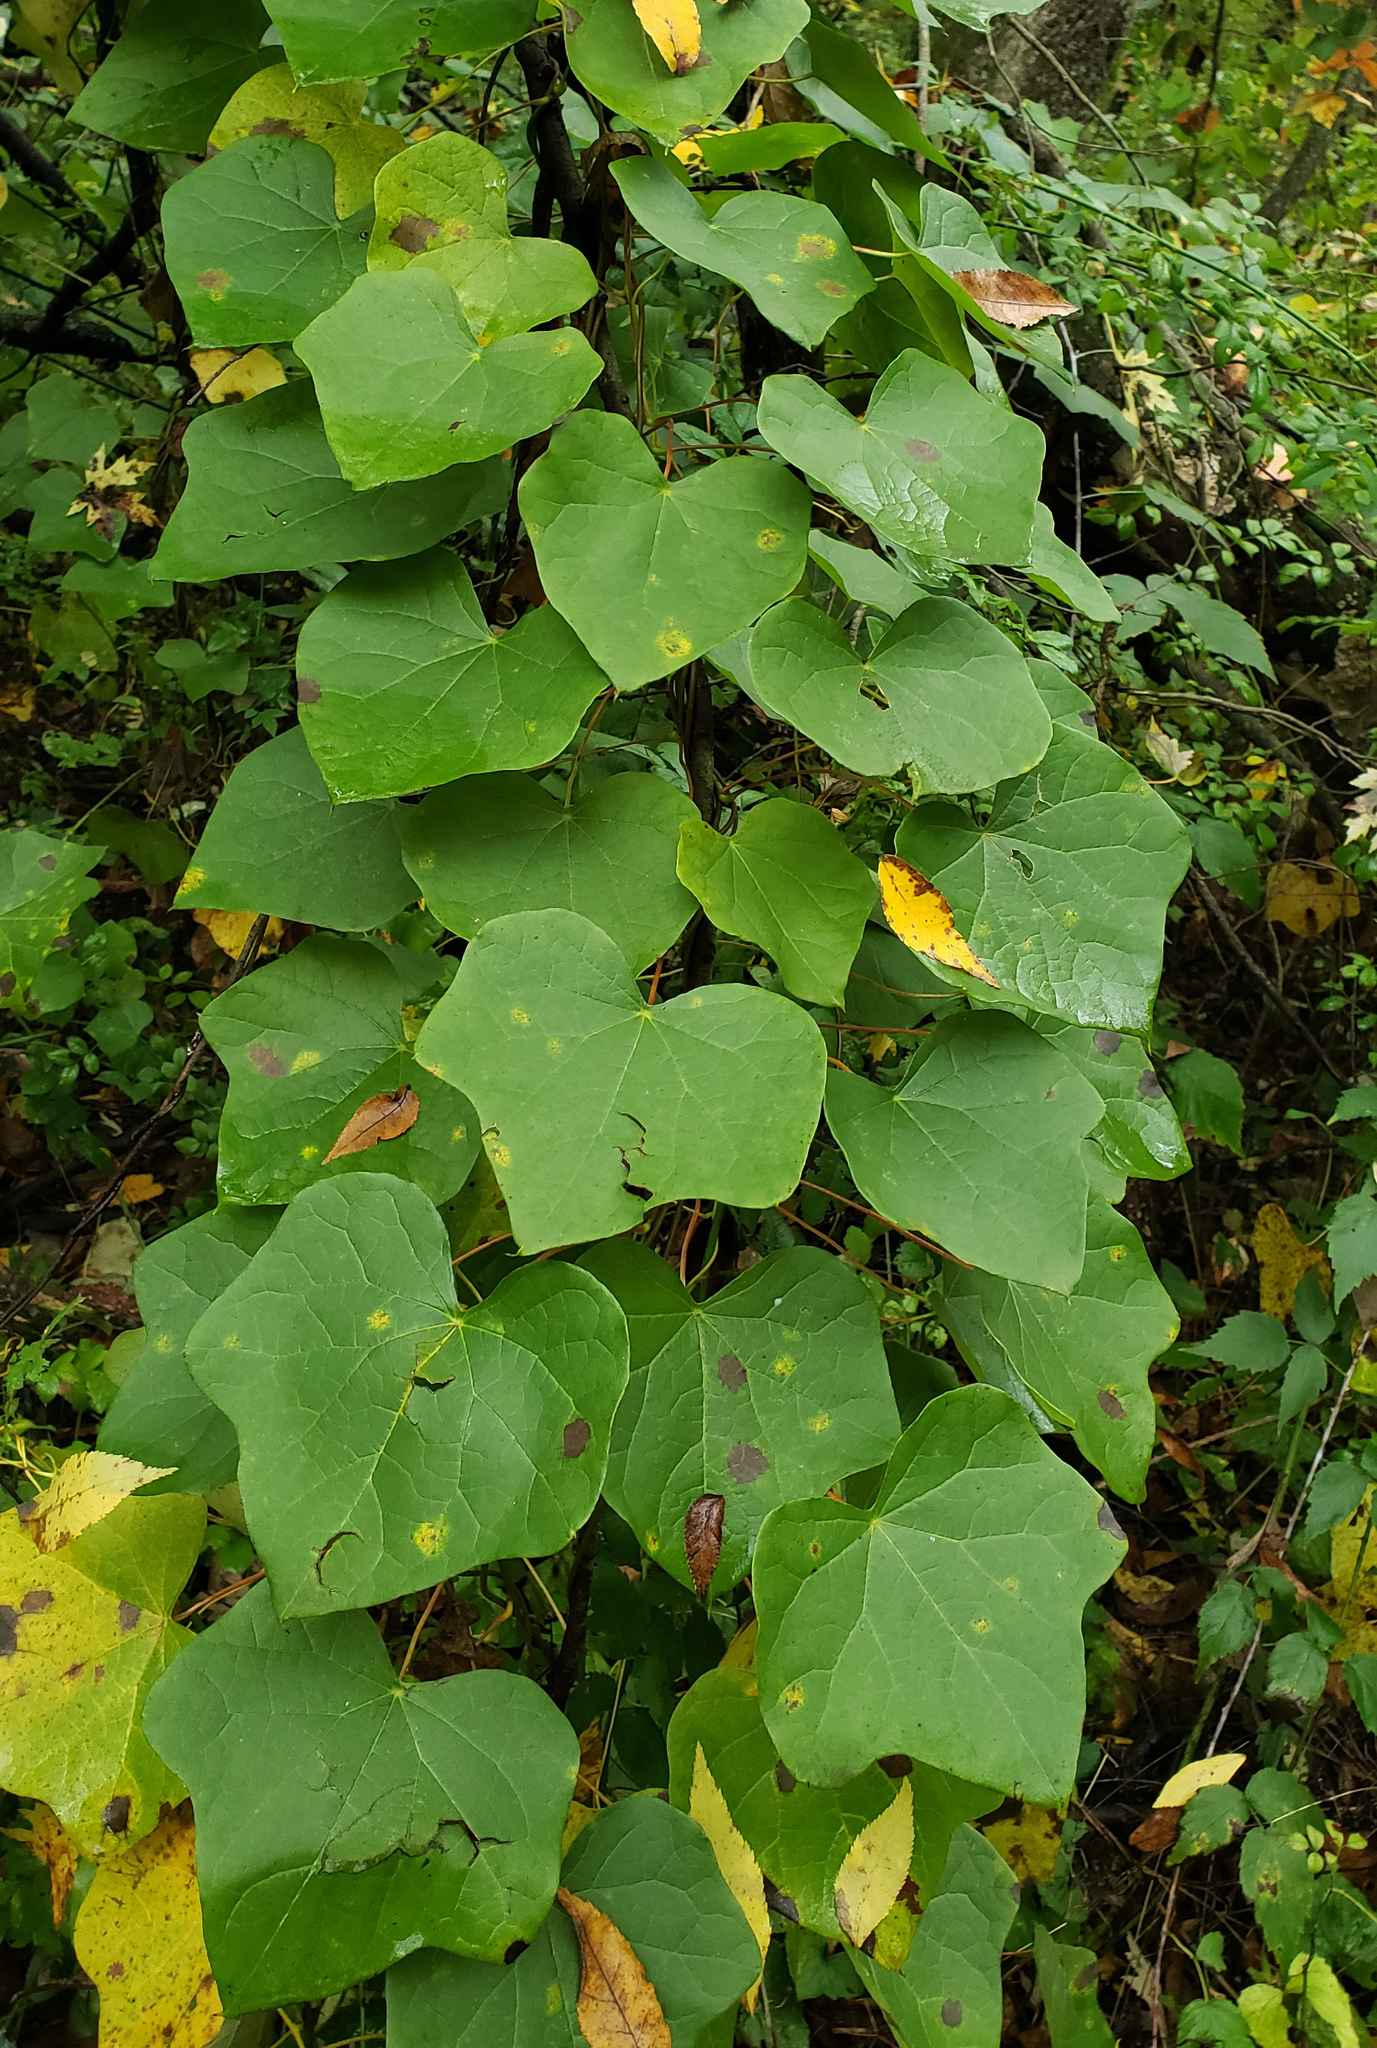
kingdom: Plantae
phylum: Tracheophyta
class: Magnoliopsida
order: Ranunculales
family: Menispermaceae
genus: Menispermum
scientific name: Menispermum canadense
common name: Moonseed
